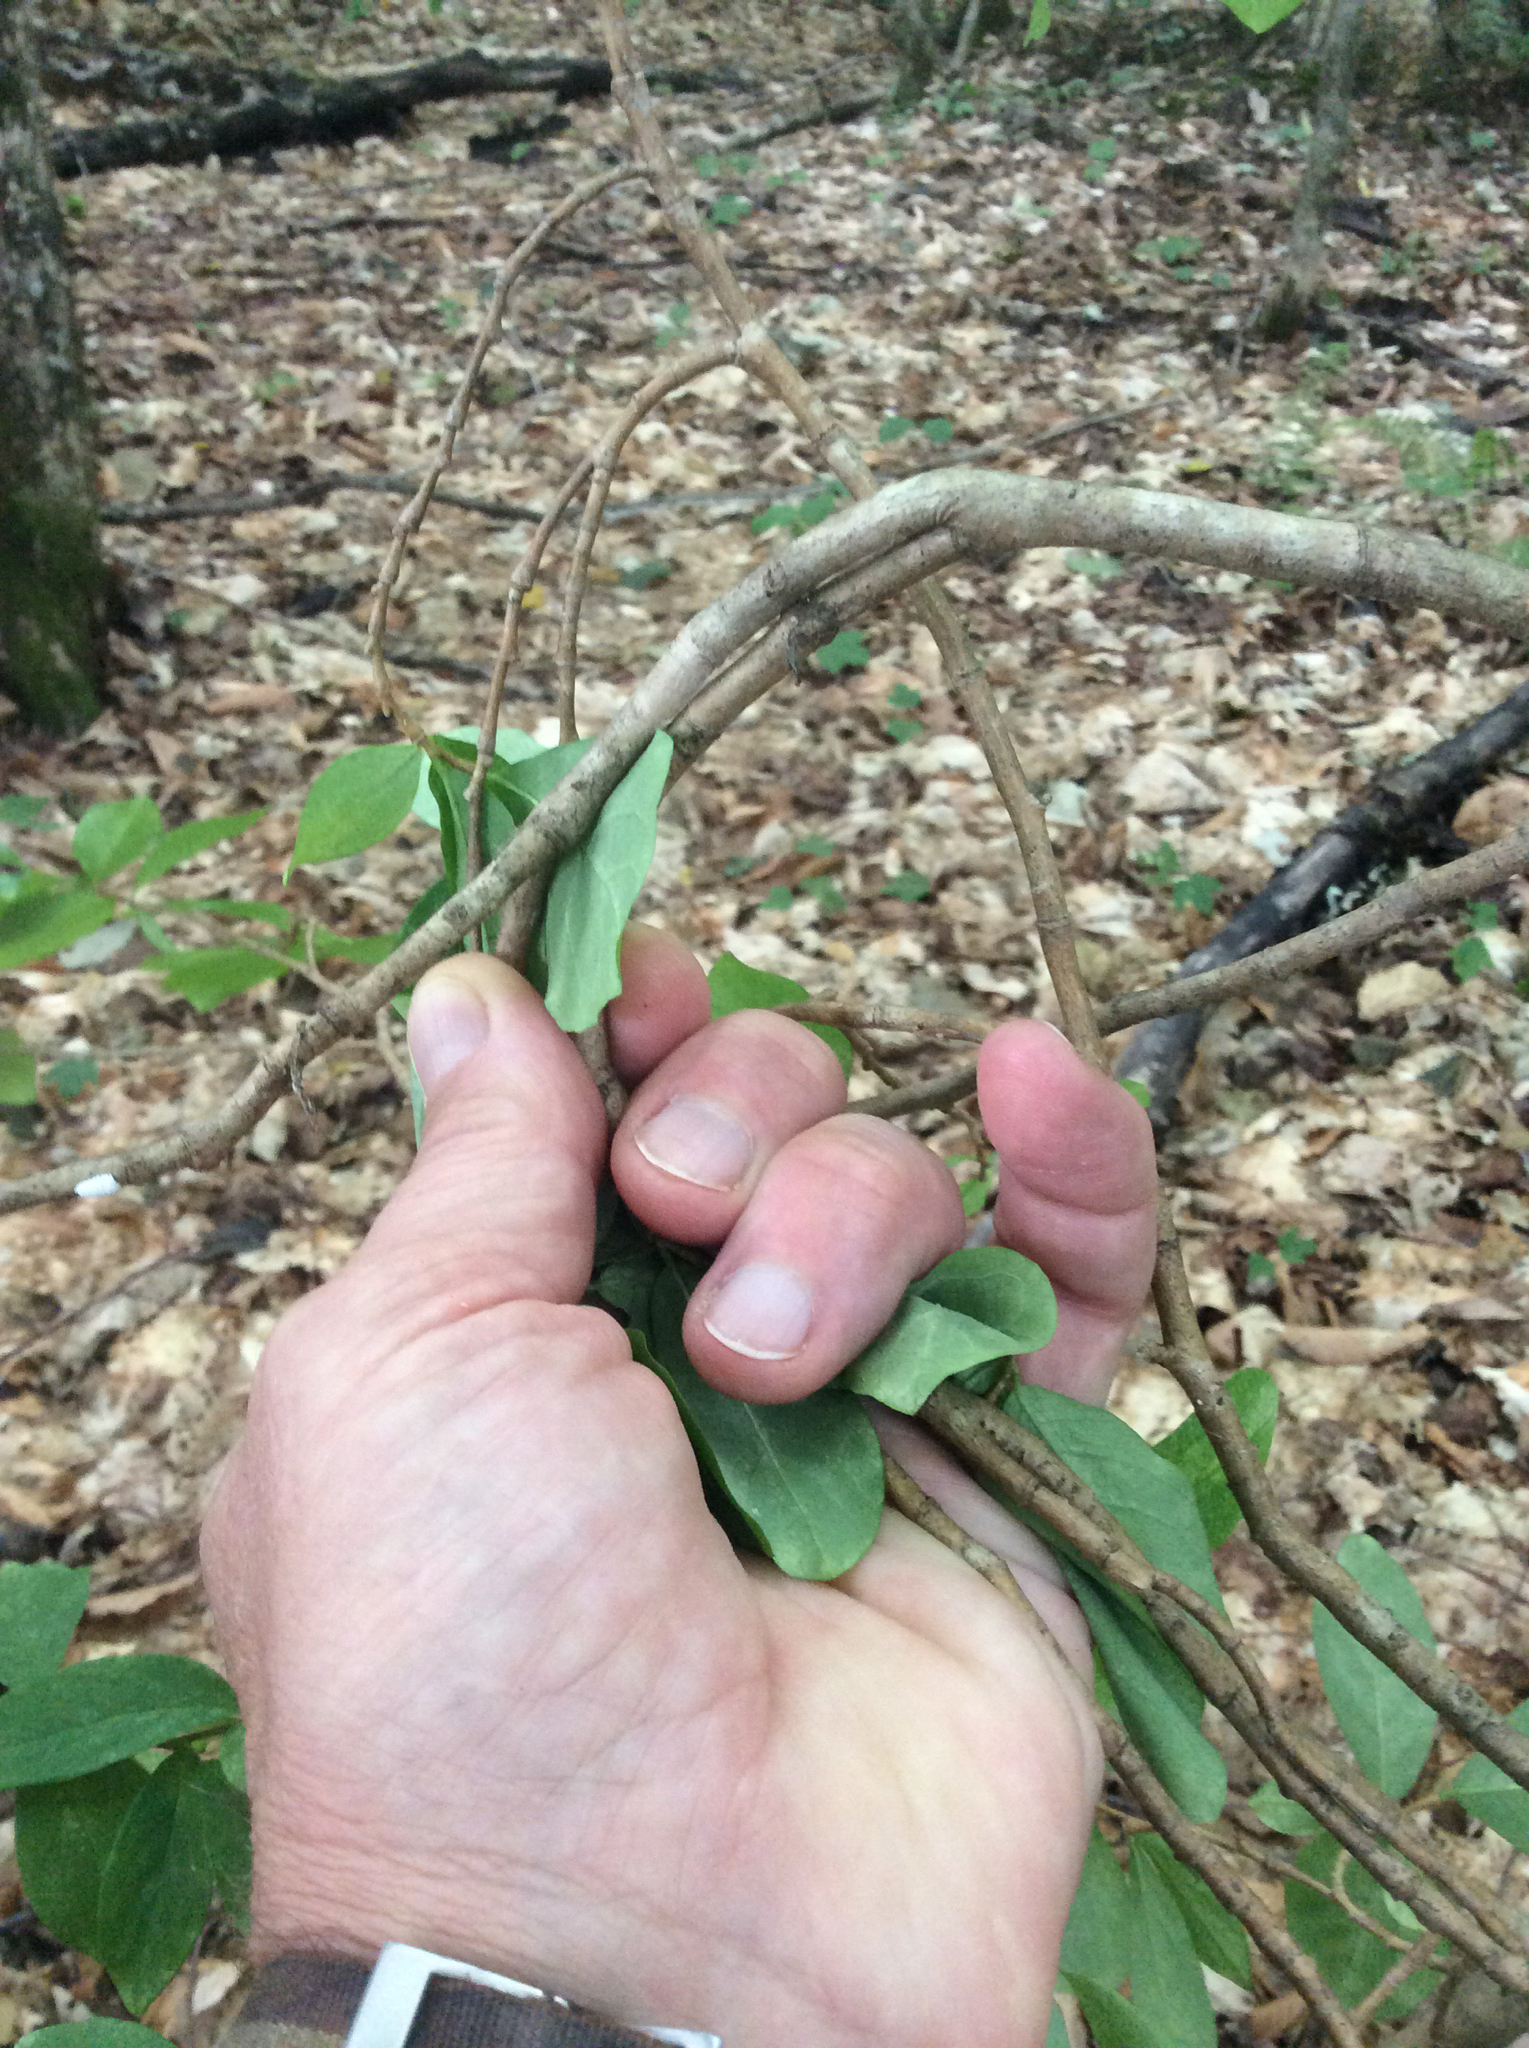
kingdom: Plantae
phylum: Tracheophyta
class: Magnoliopsida
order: Malvales
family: Thymelaeaceae
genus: Dirca
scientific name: Dirca palustris
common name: Leatherwood
